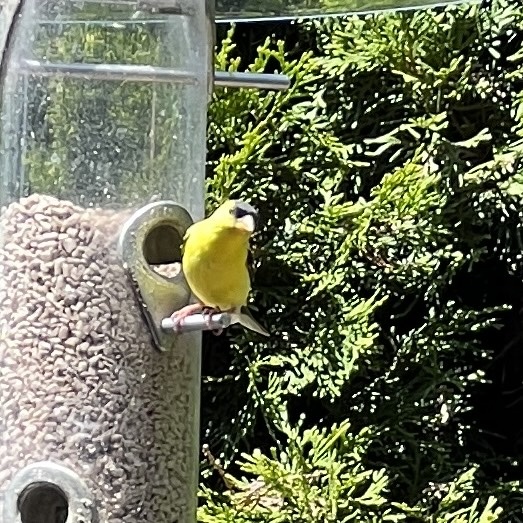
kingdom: Animalia
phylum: Chordata
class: Aves
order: Passeriformes
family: Fringillidae
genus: Spinus
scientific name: Spinus tristis
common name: American goldfinch
